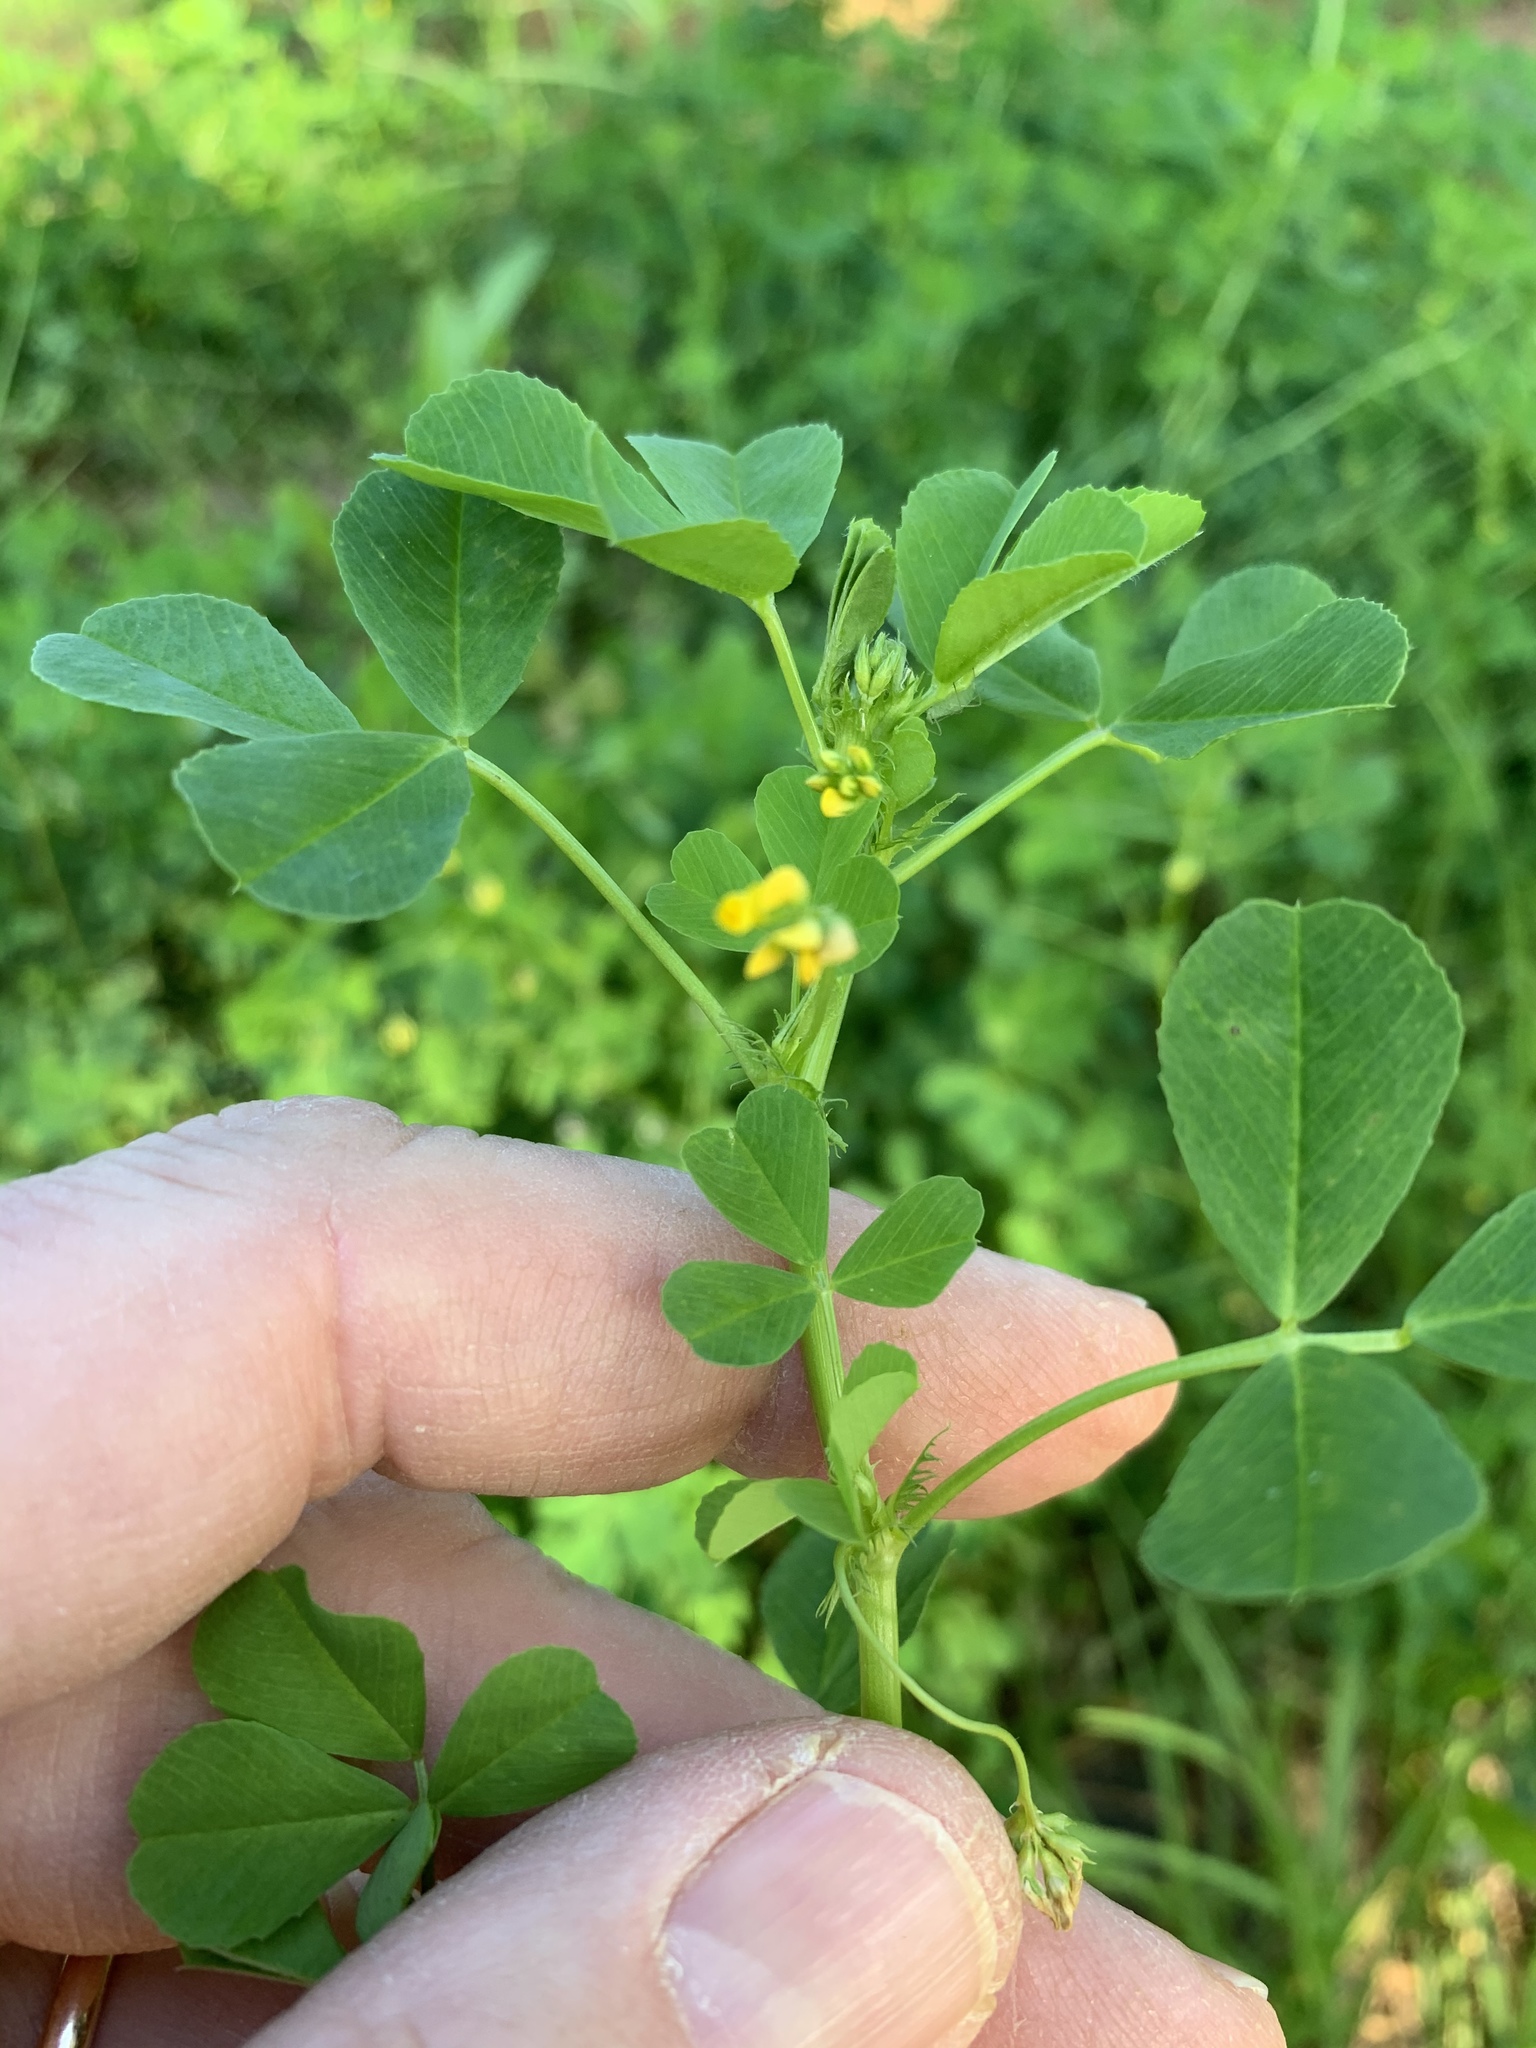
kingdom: Plantae
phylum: Tracheophyta
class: Magnoliopsida
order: Fabales
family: Fabaceae
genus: Medicago
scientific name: Medicago polymorpha
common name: Burclover
